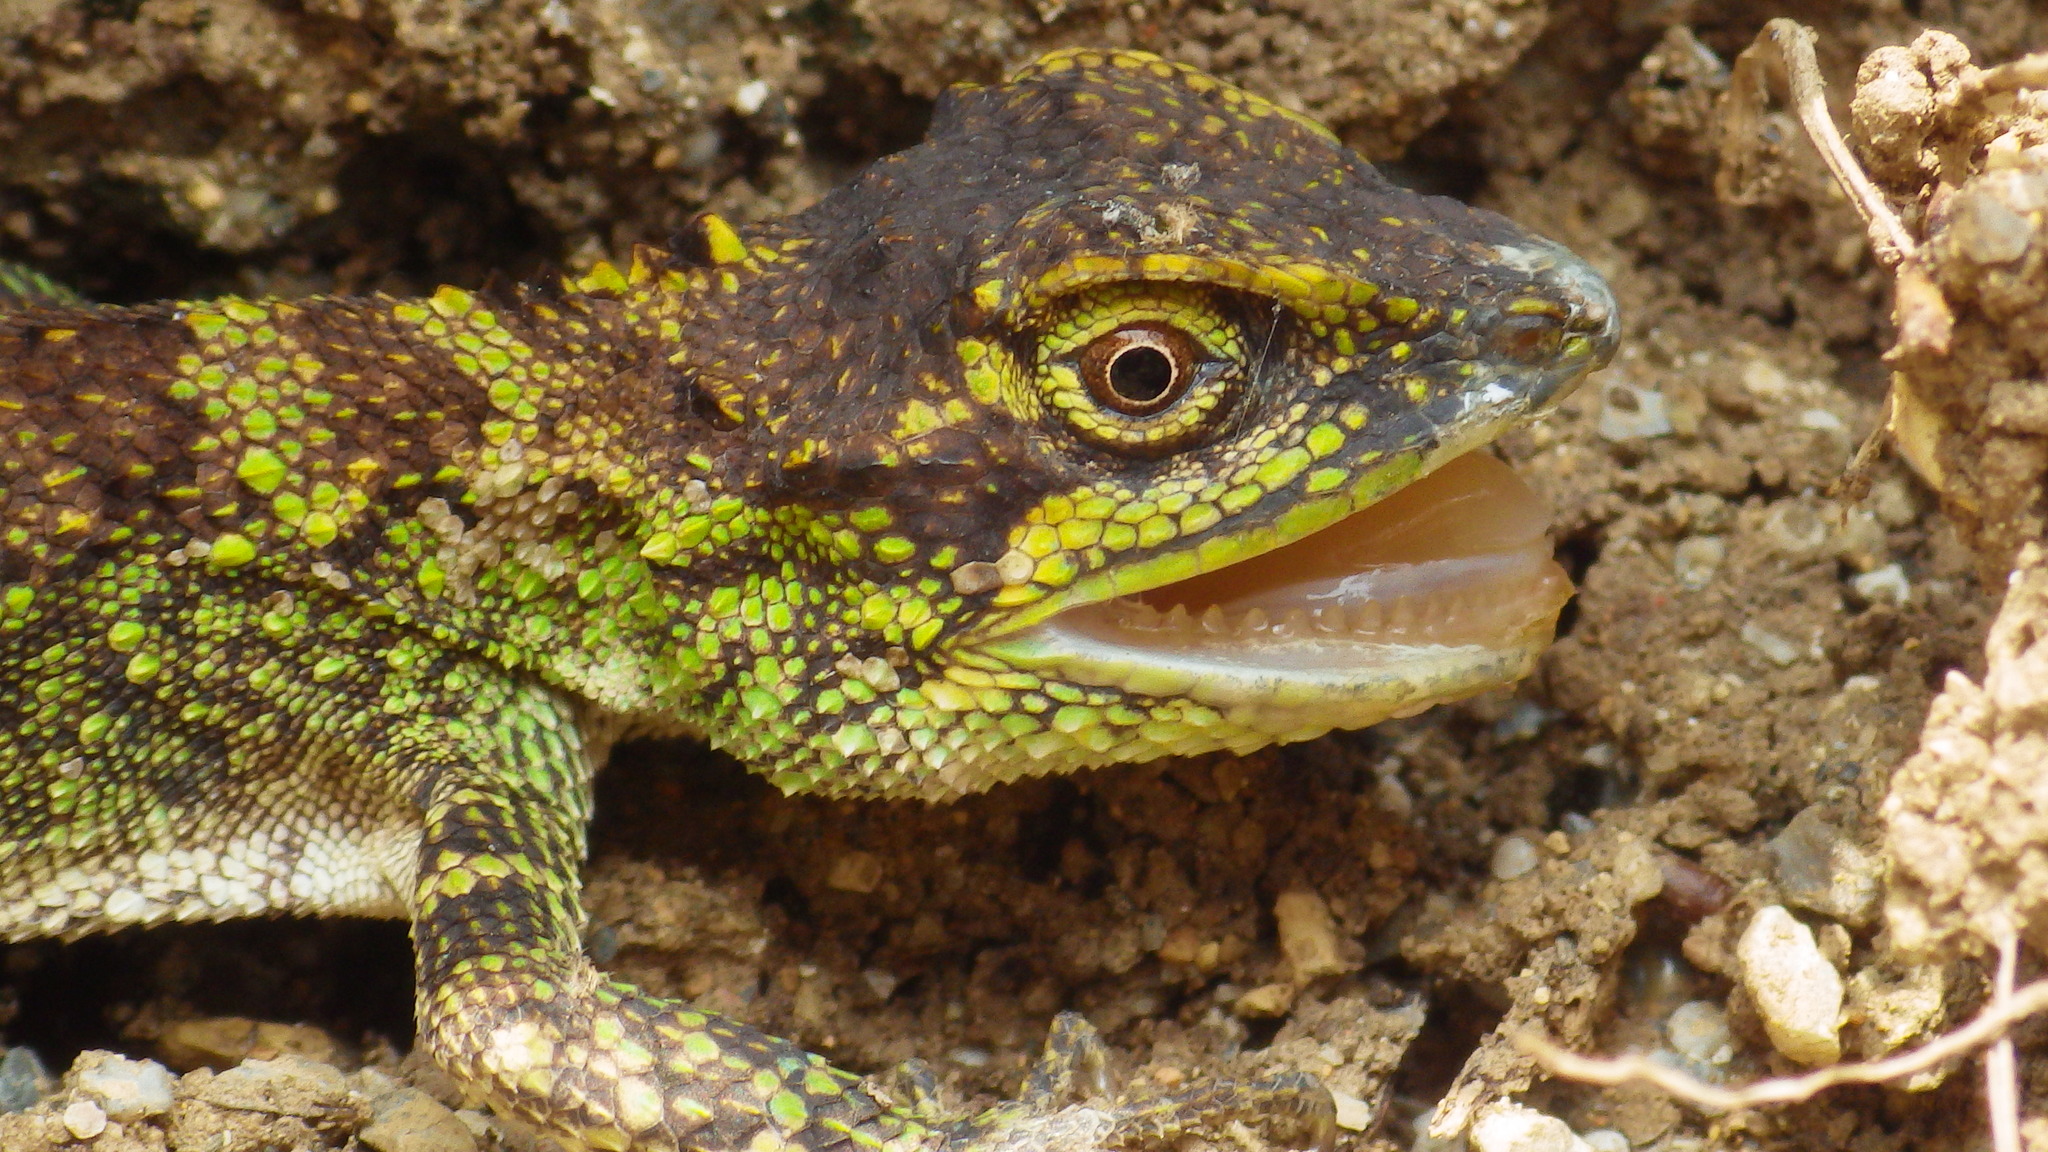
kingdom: Fungi
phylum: Basidiomycota
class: Agaricomycetes
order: Boletales
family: Diplocystidiaceae
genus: Diploderma
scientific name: Diploderma polygonatum
